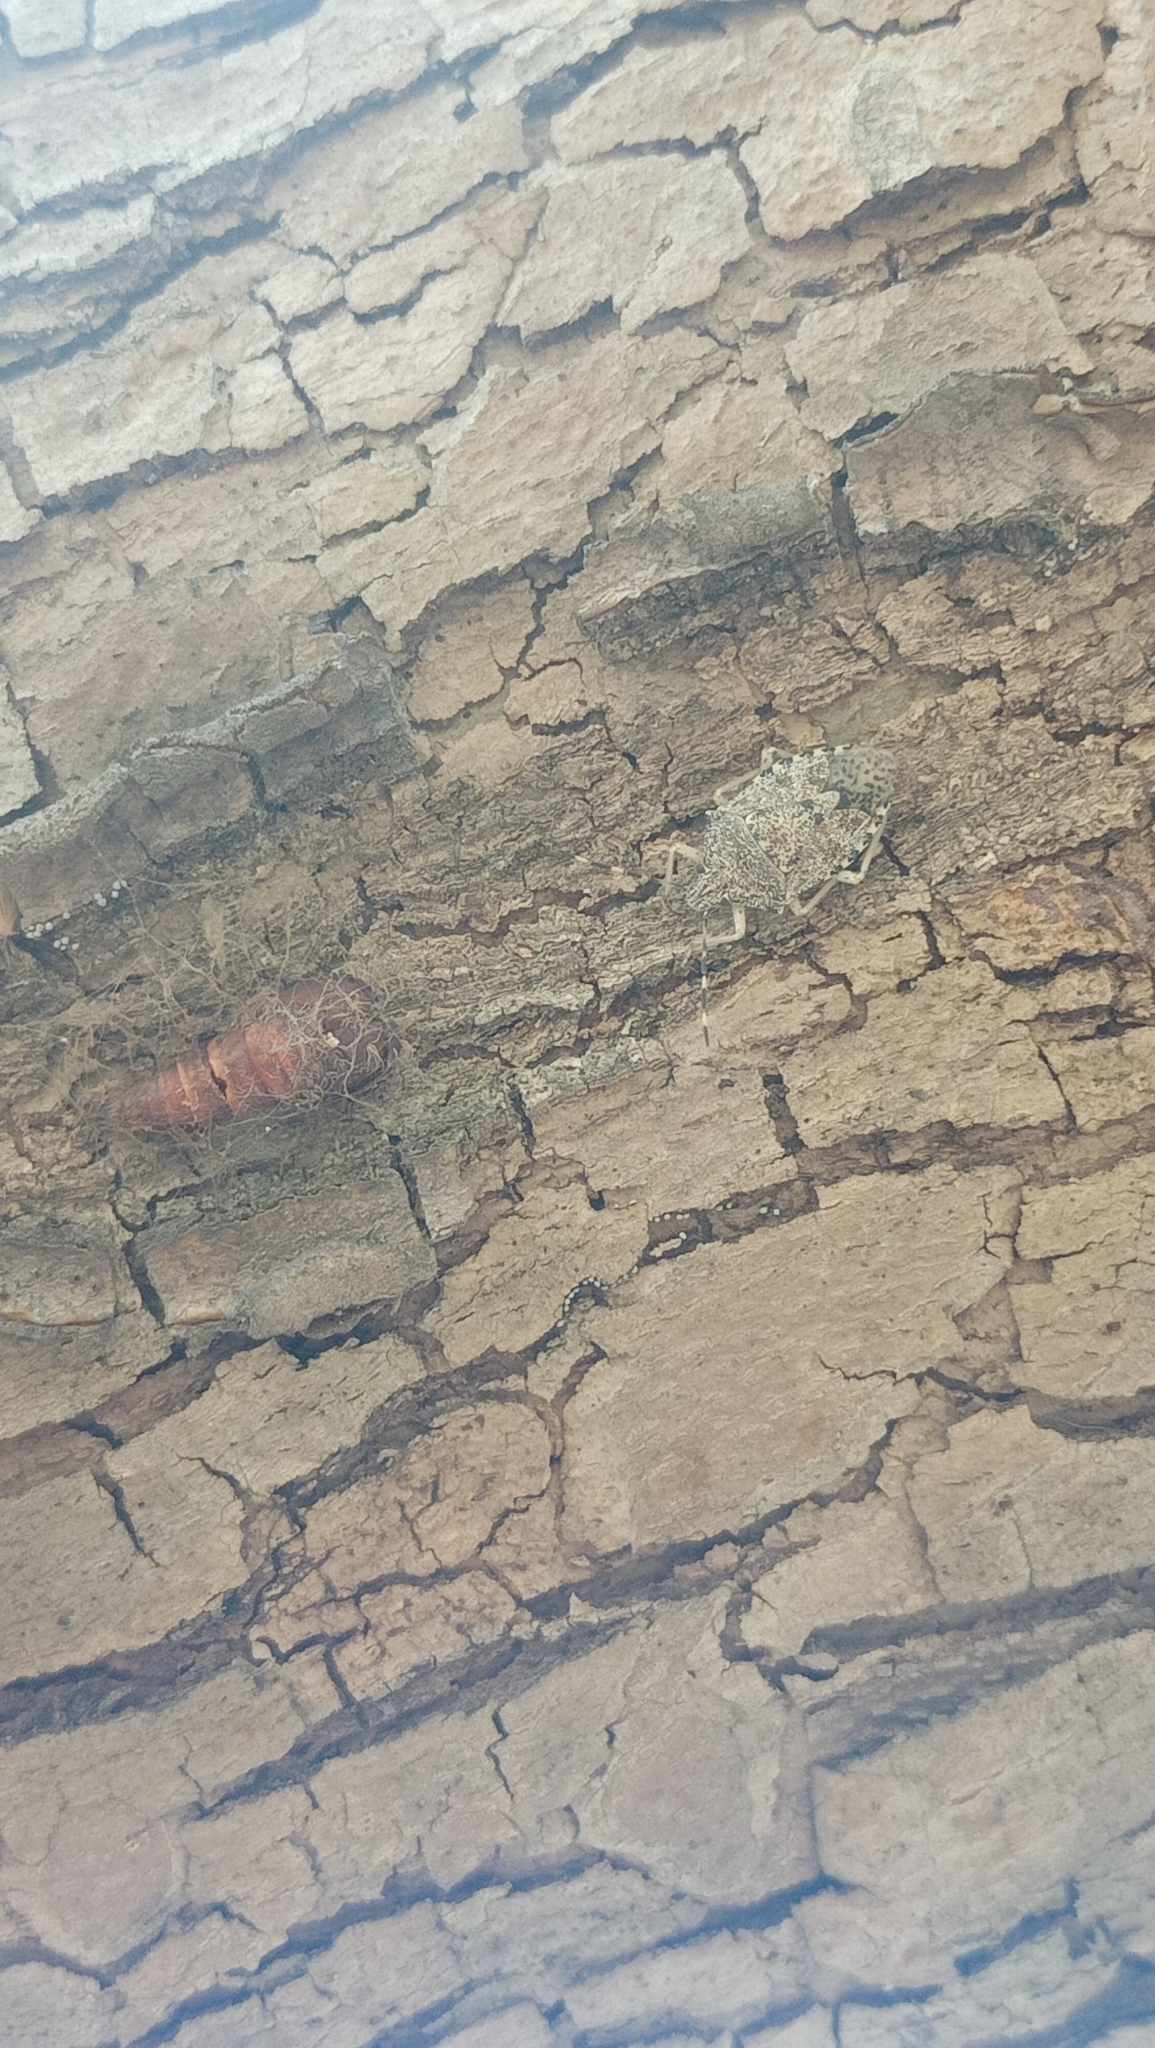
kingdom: Animalia
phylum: Arthropoda
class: Insecta
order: Hemiptera
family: Pentatomidae
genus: Rhaphigaster
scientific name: Rhaphigaster nebulosa
